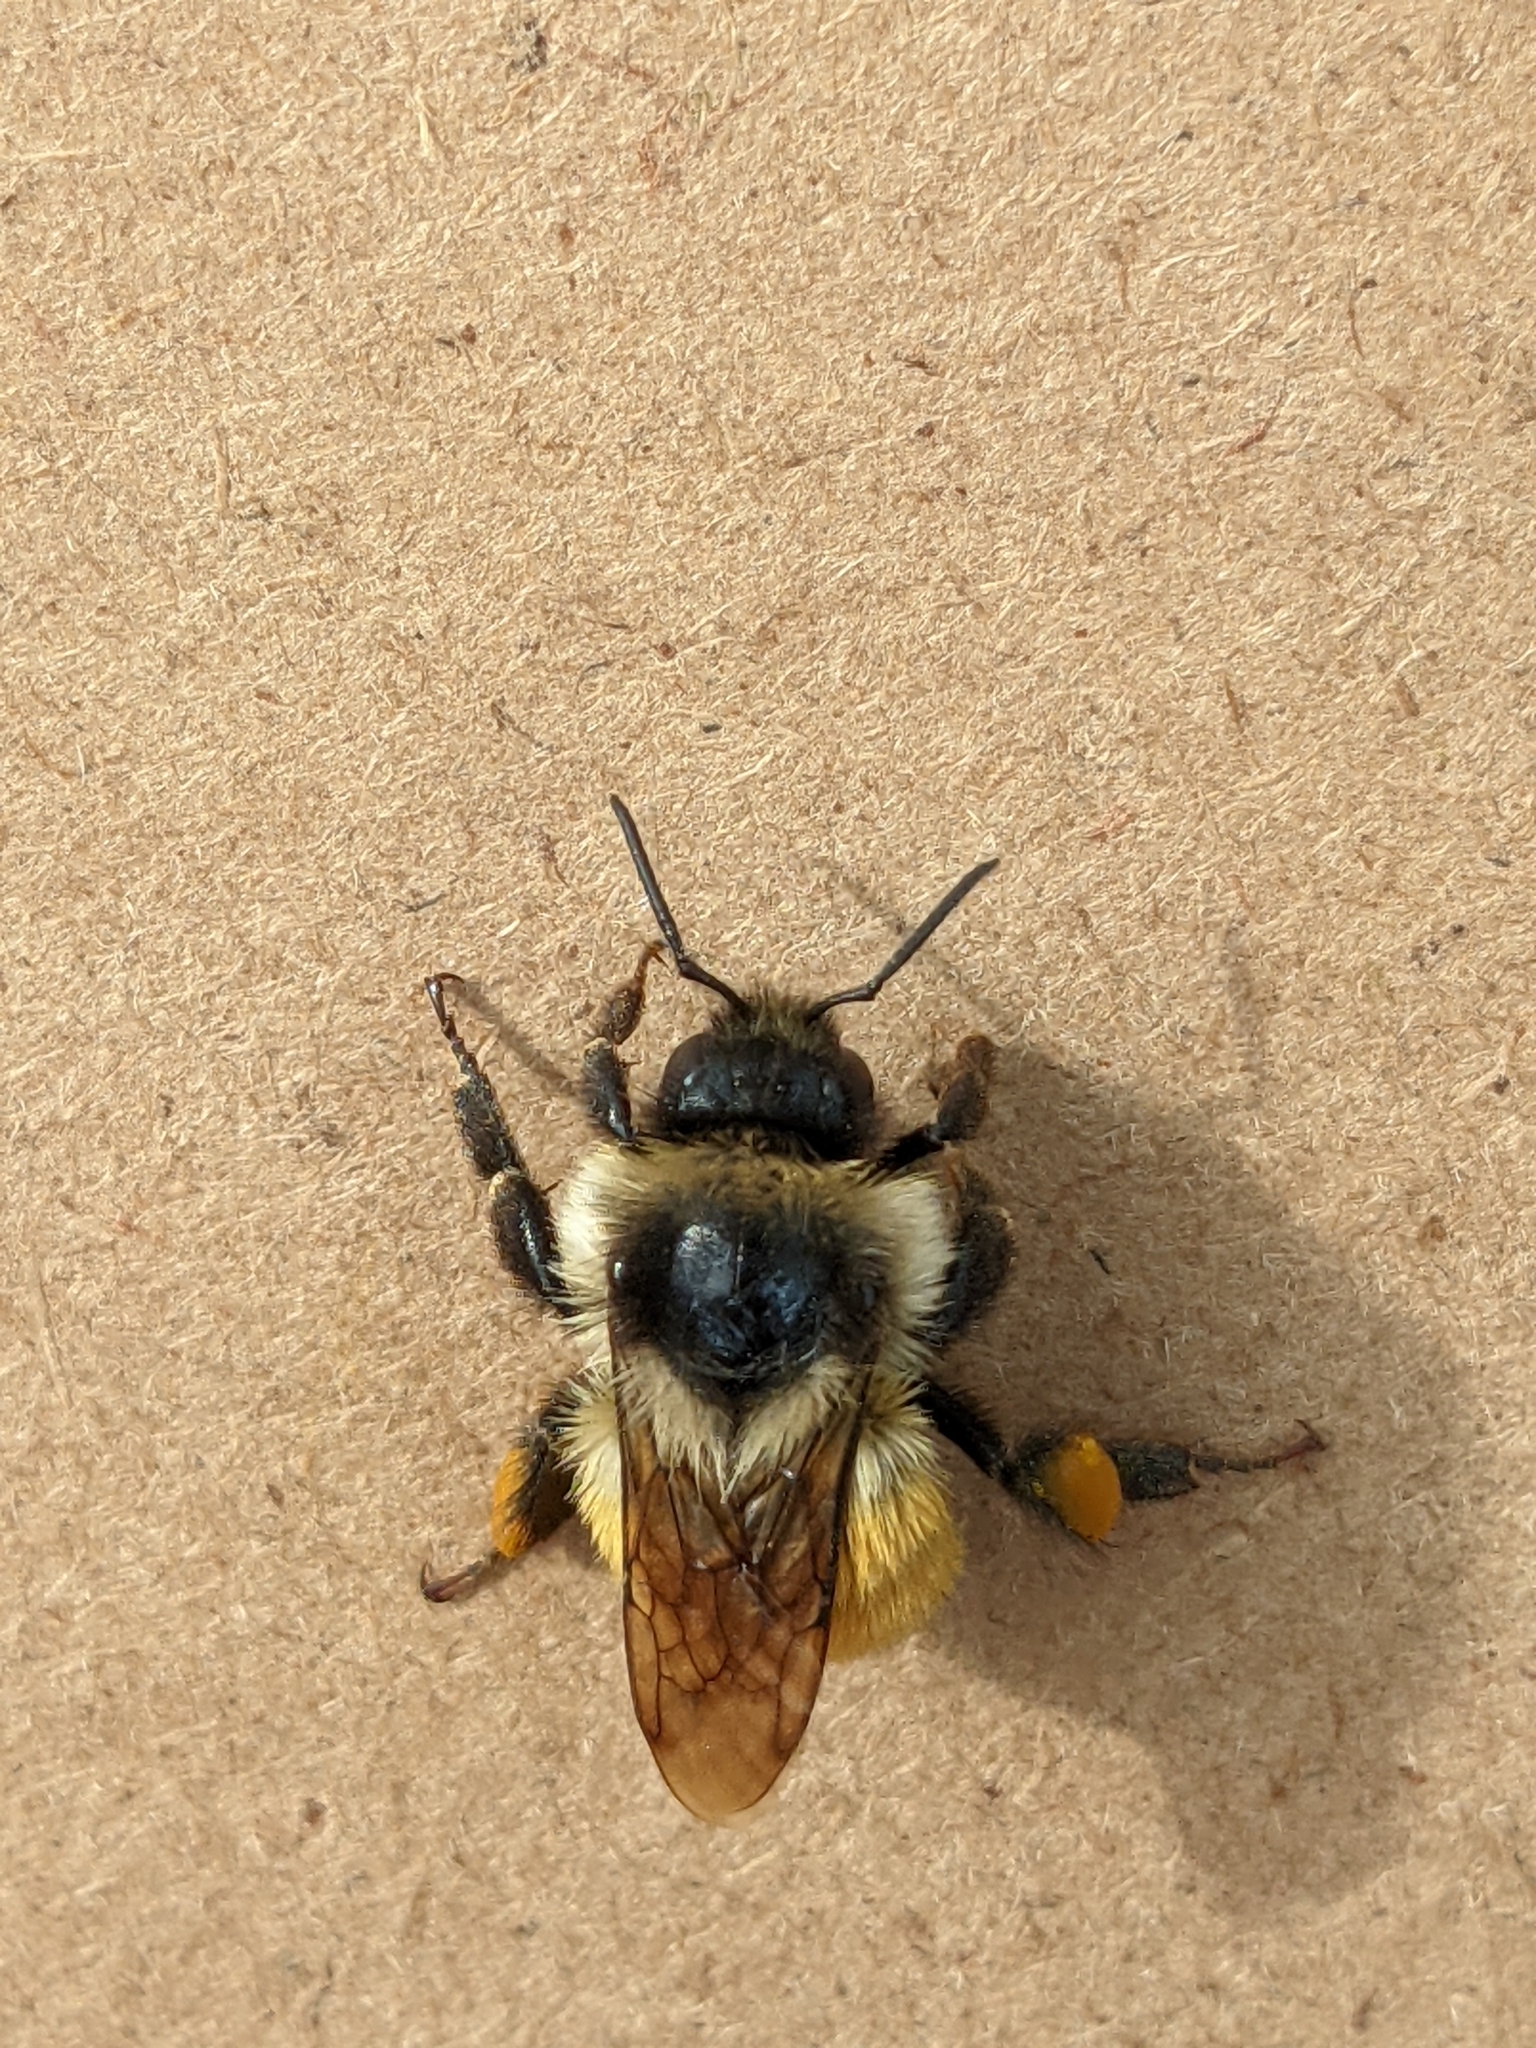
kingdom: Animalia
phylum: Arthropoda
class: Insecta
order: Hymenoptera
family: Apidae
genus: Bombus
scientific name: Bombus ternarius
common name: Tri-colored bumble bee
